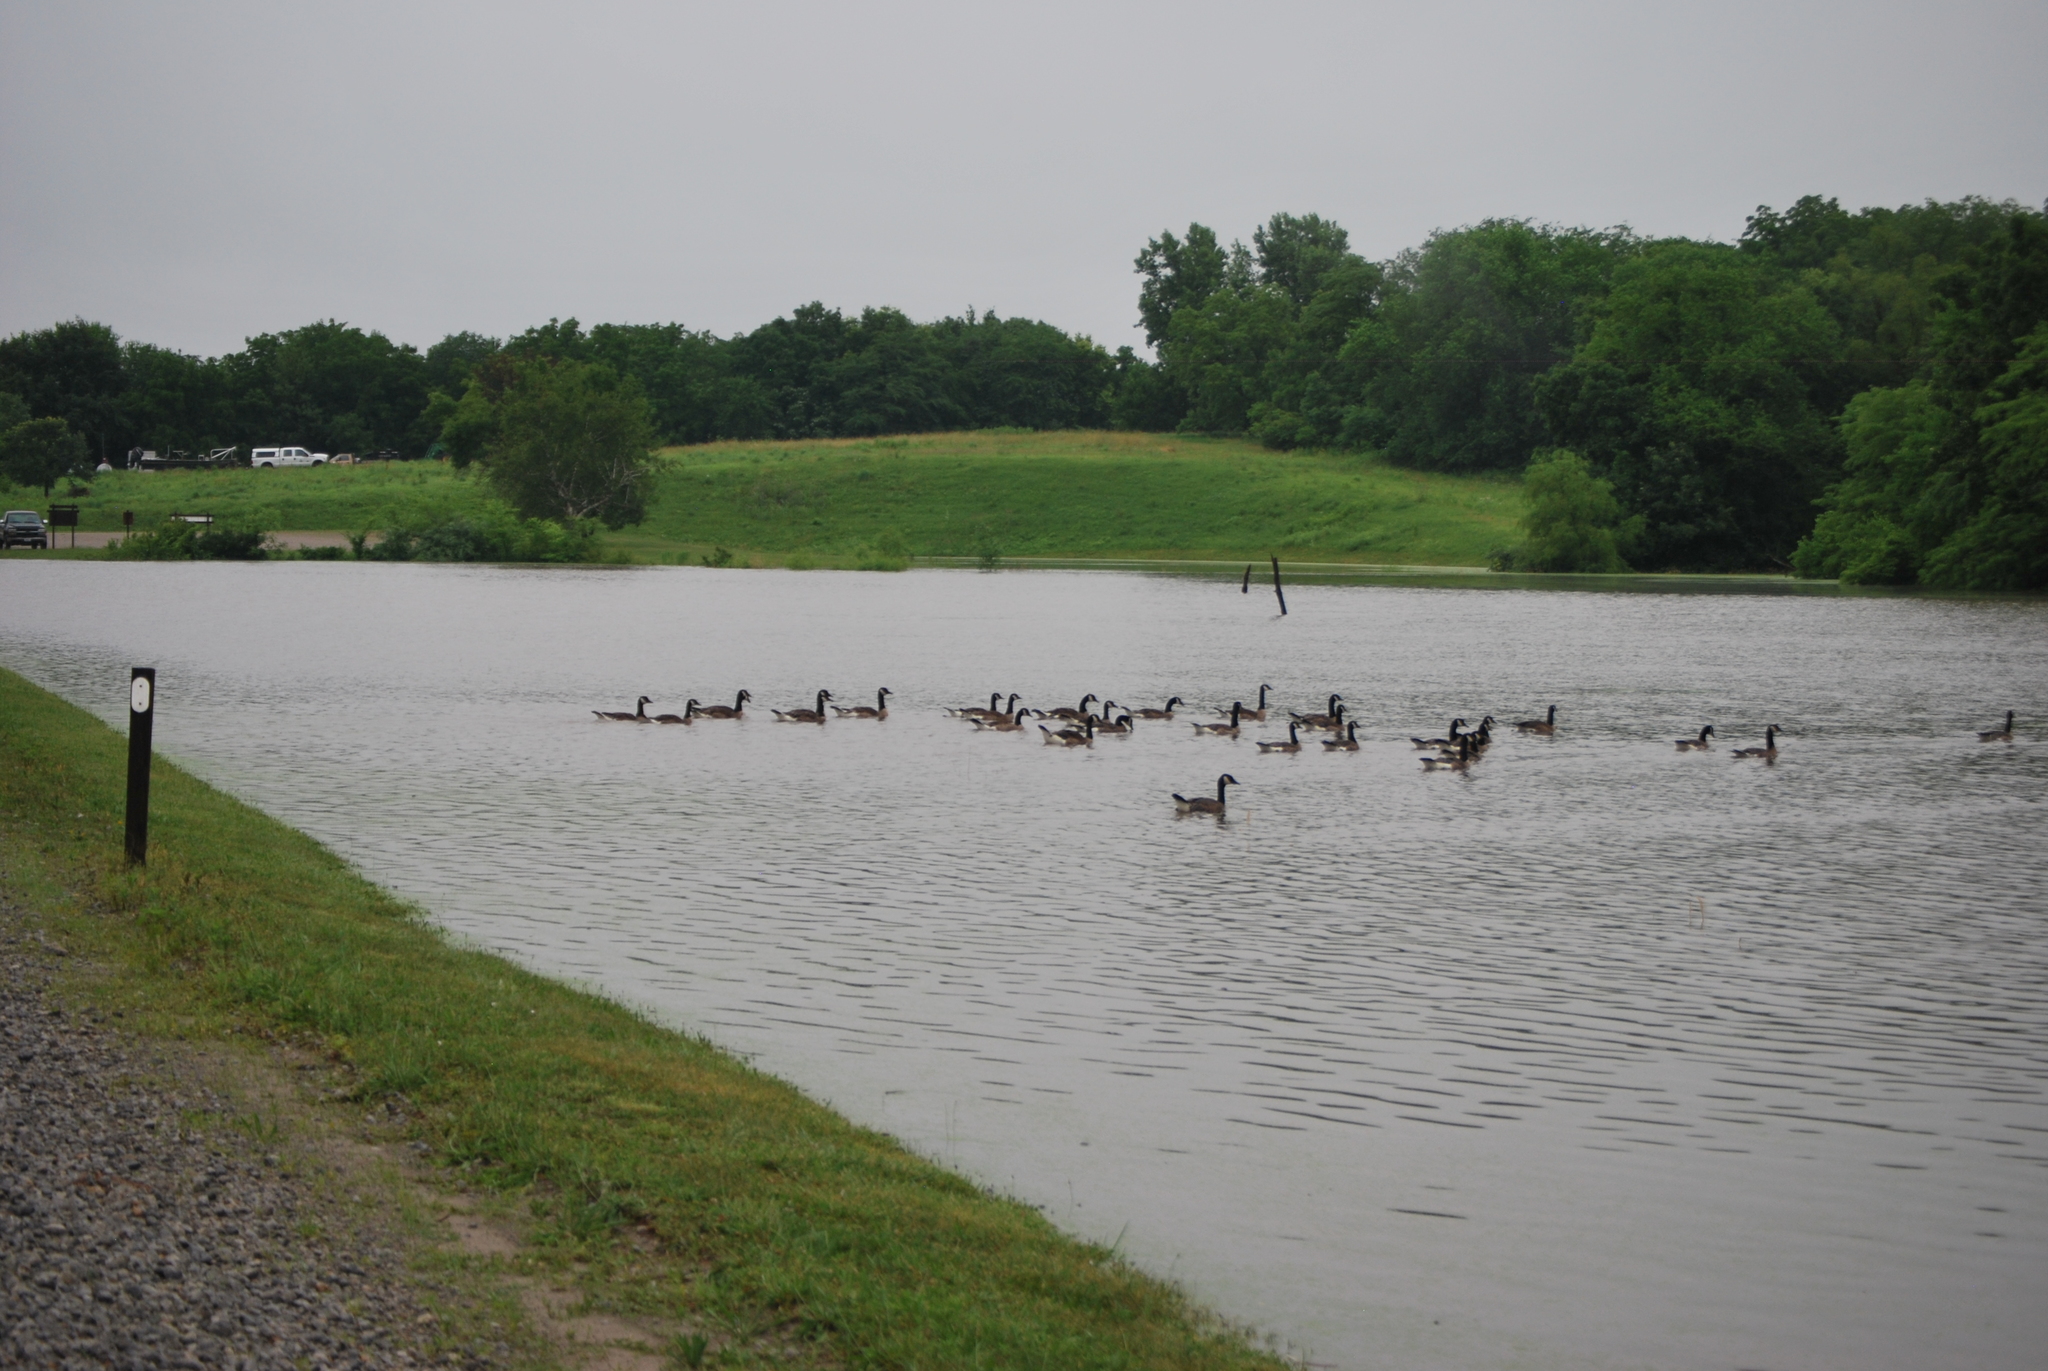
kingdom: Animalia
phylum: Chordata
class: Aves
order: Anseriformes
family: Anatidae
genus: Branta
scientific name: Branta canadensis
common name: Canada goose
